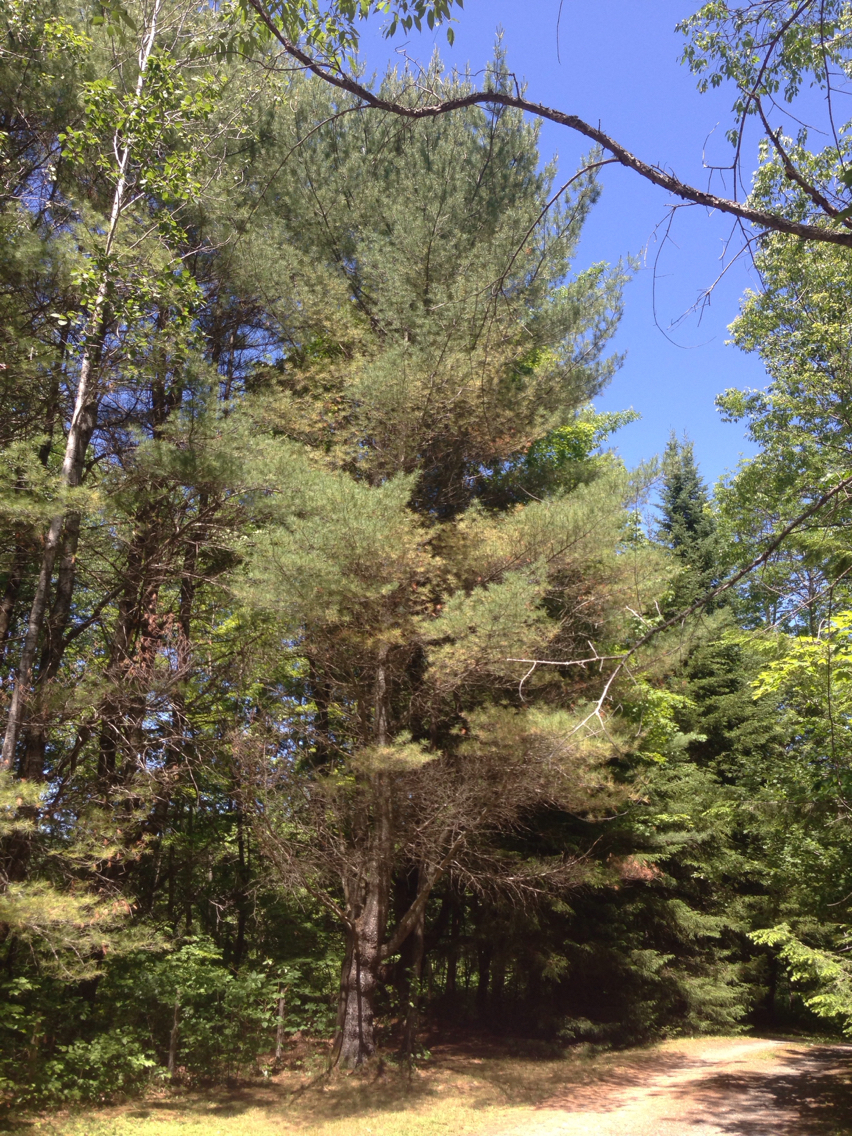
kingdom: Plantae
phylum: Tracheophyta
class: Pinopsida
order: Pinales
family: Pinaceae
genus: Pinus
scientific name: Pinus strobus
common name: Weymouth pine
